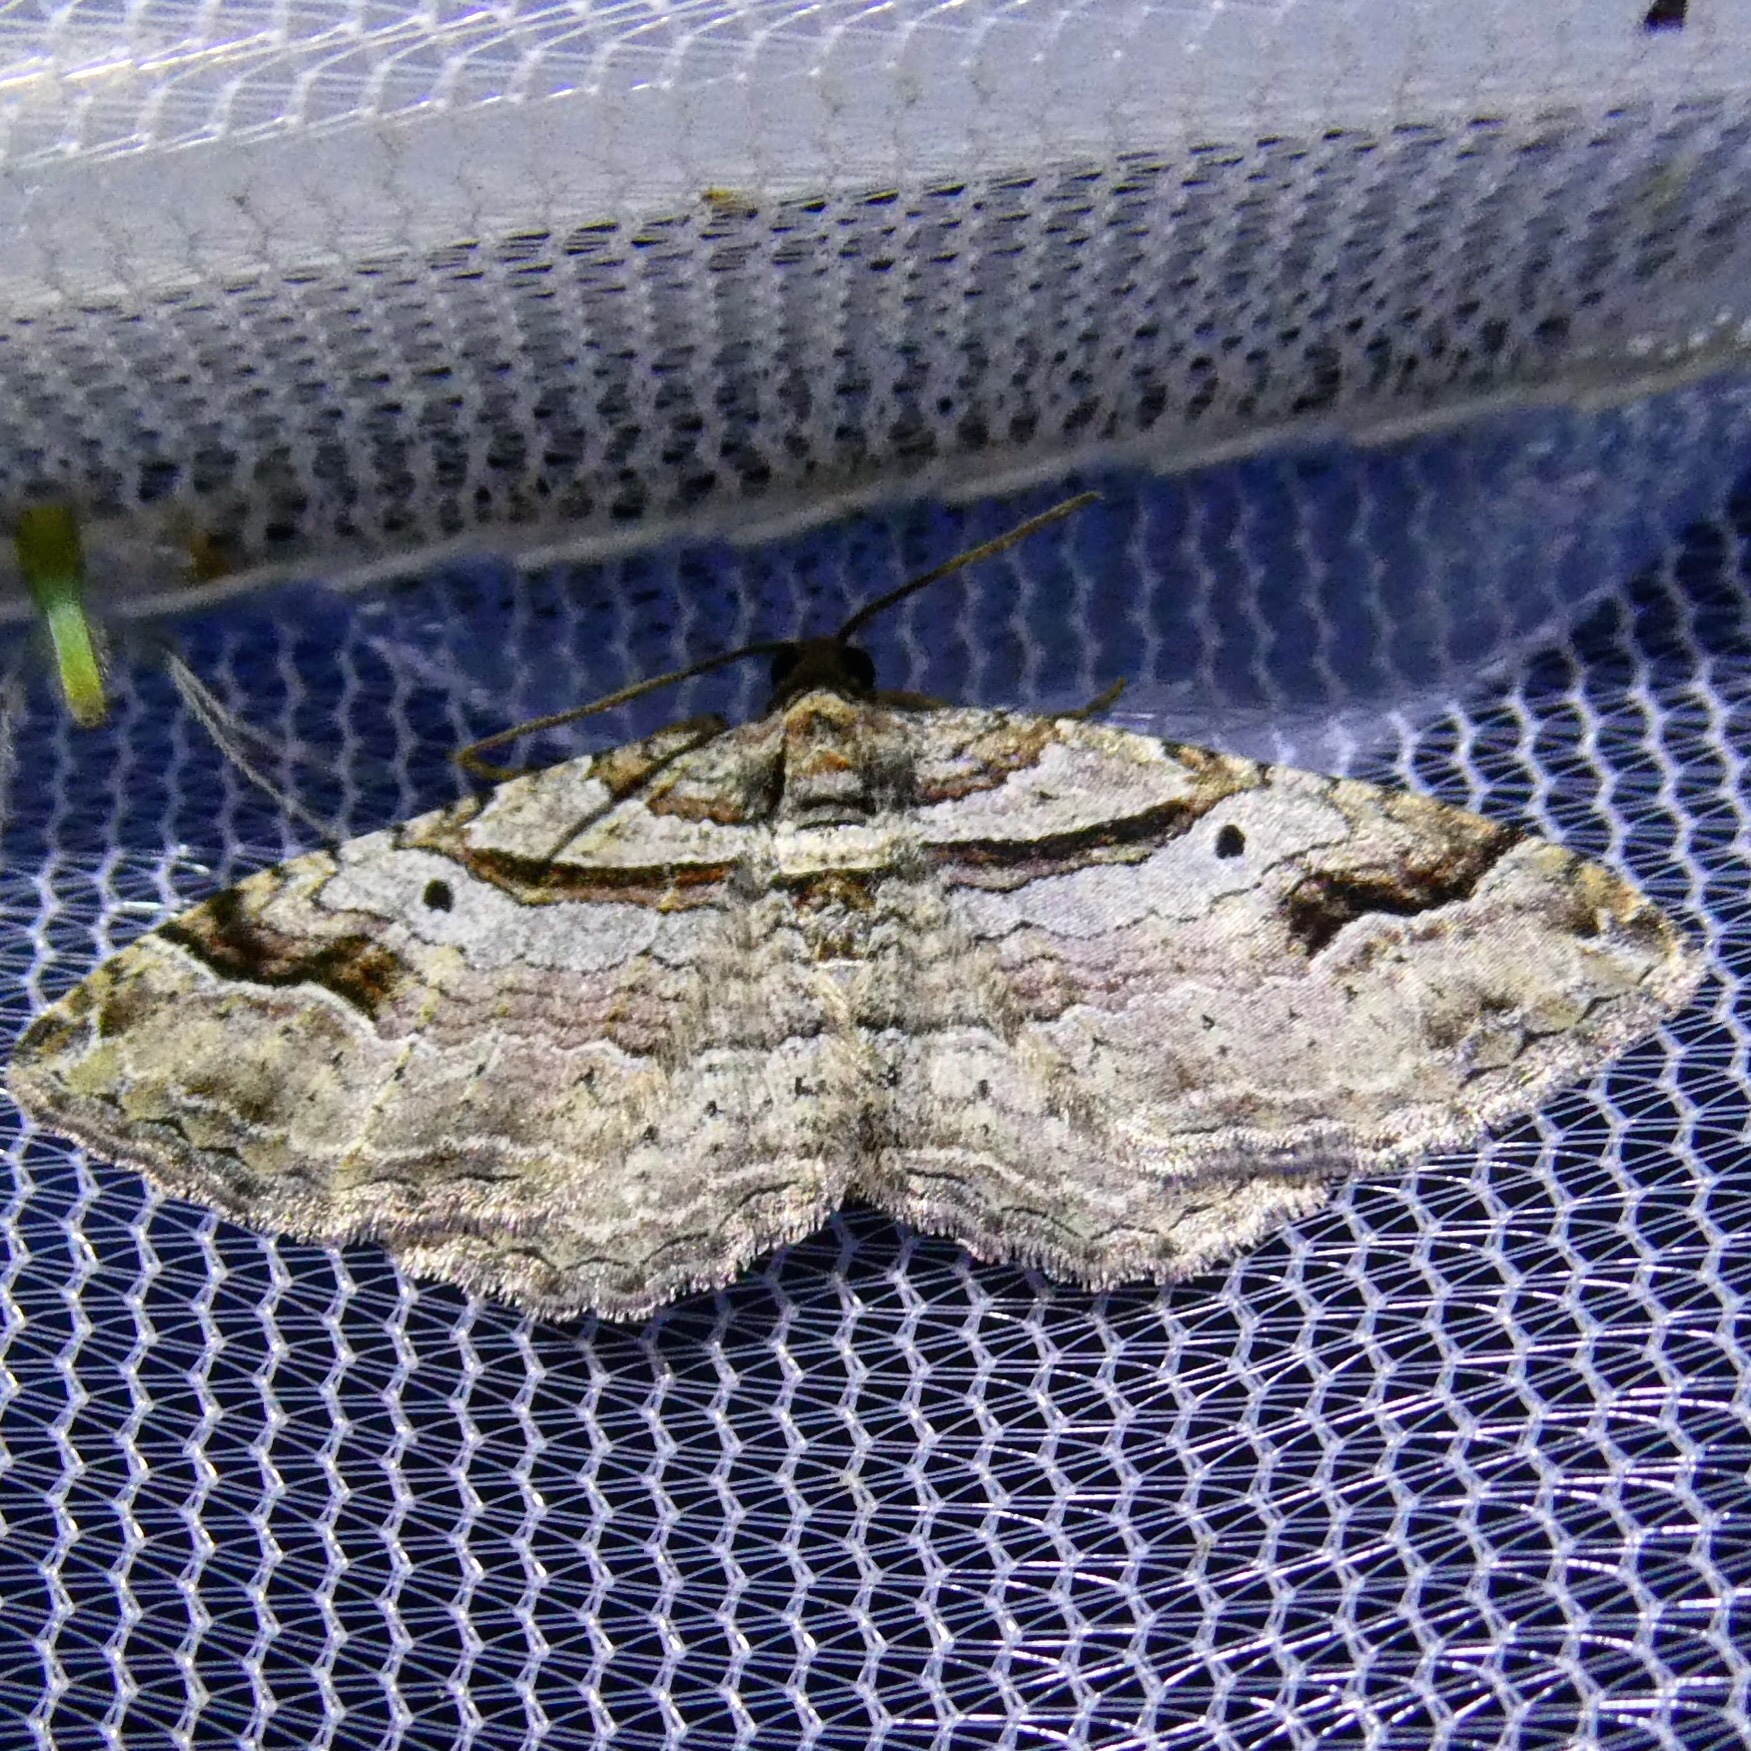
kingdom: Animalia
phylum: Arthropoda
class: Insecta
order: Lepidoptera
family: Geometridae
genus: Costaconvexa
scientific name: Costaconvexa centrostrigaria
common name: Bent-line carpet
